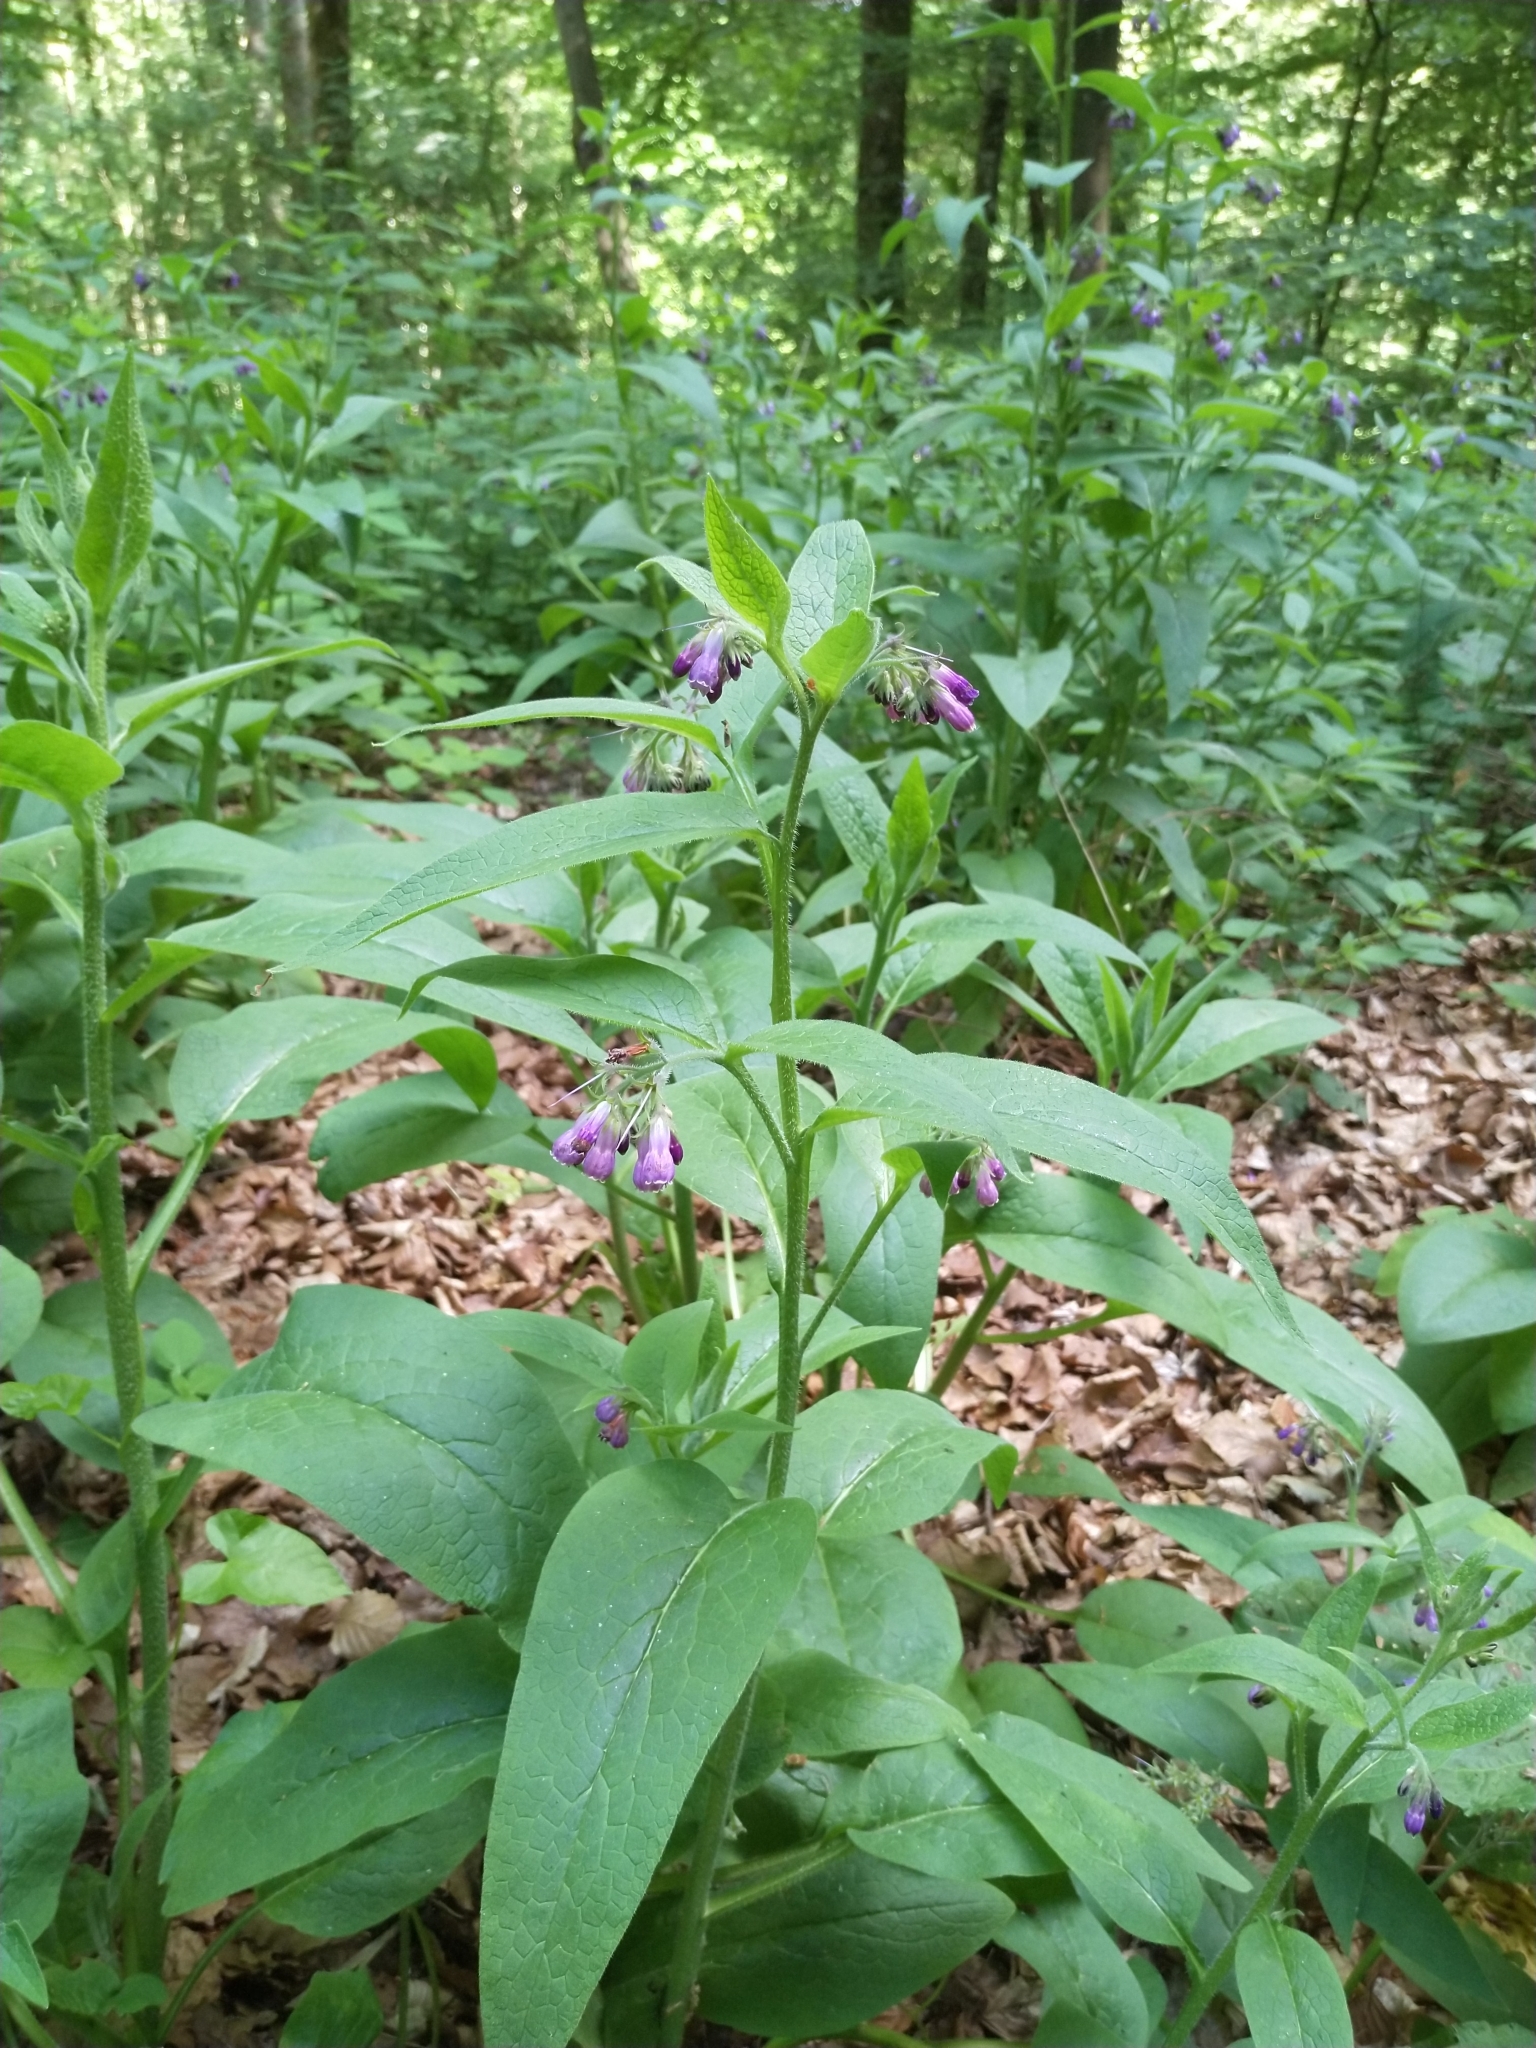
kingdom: Plantae
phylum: Tracheophyta
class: Magnoliopsida
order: Boraginales
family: Boraginaceae
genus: Symphytum
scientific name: Symphytum officinale
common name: Common comfrey
